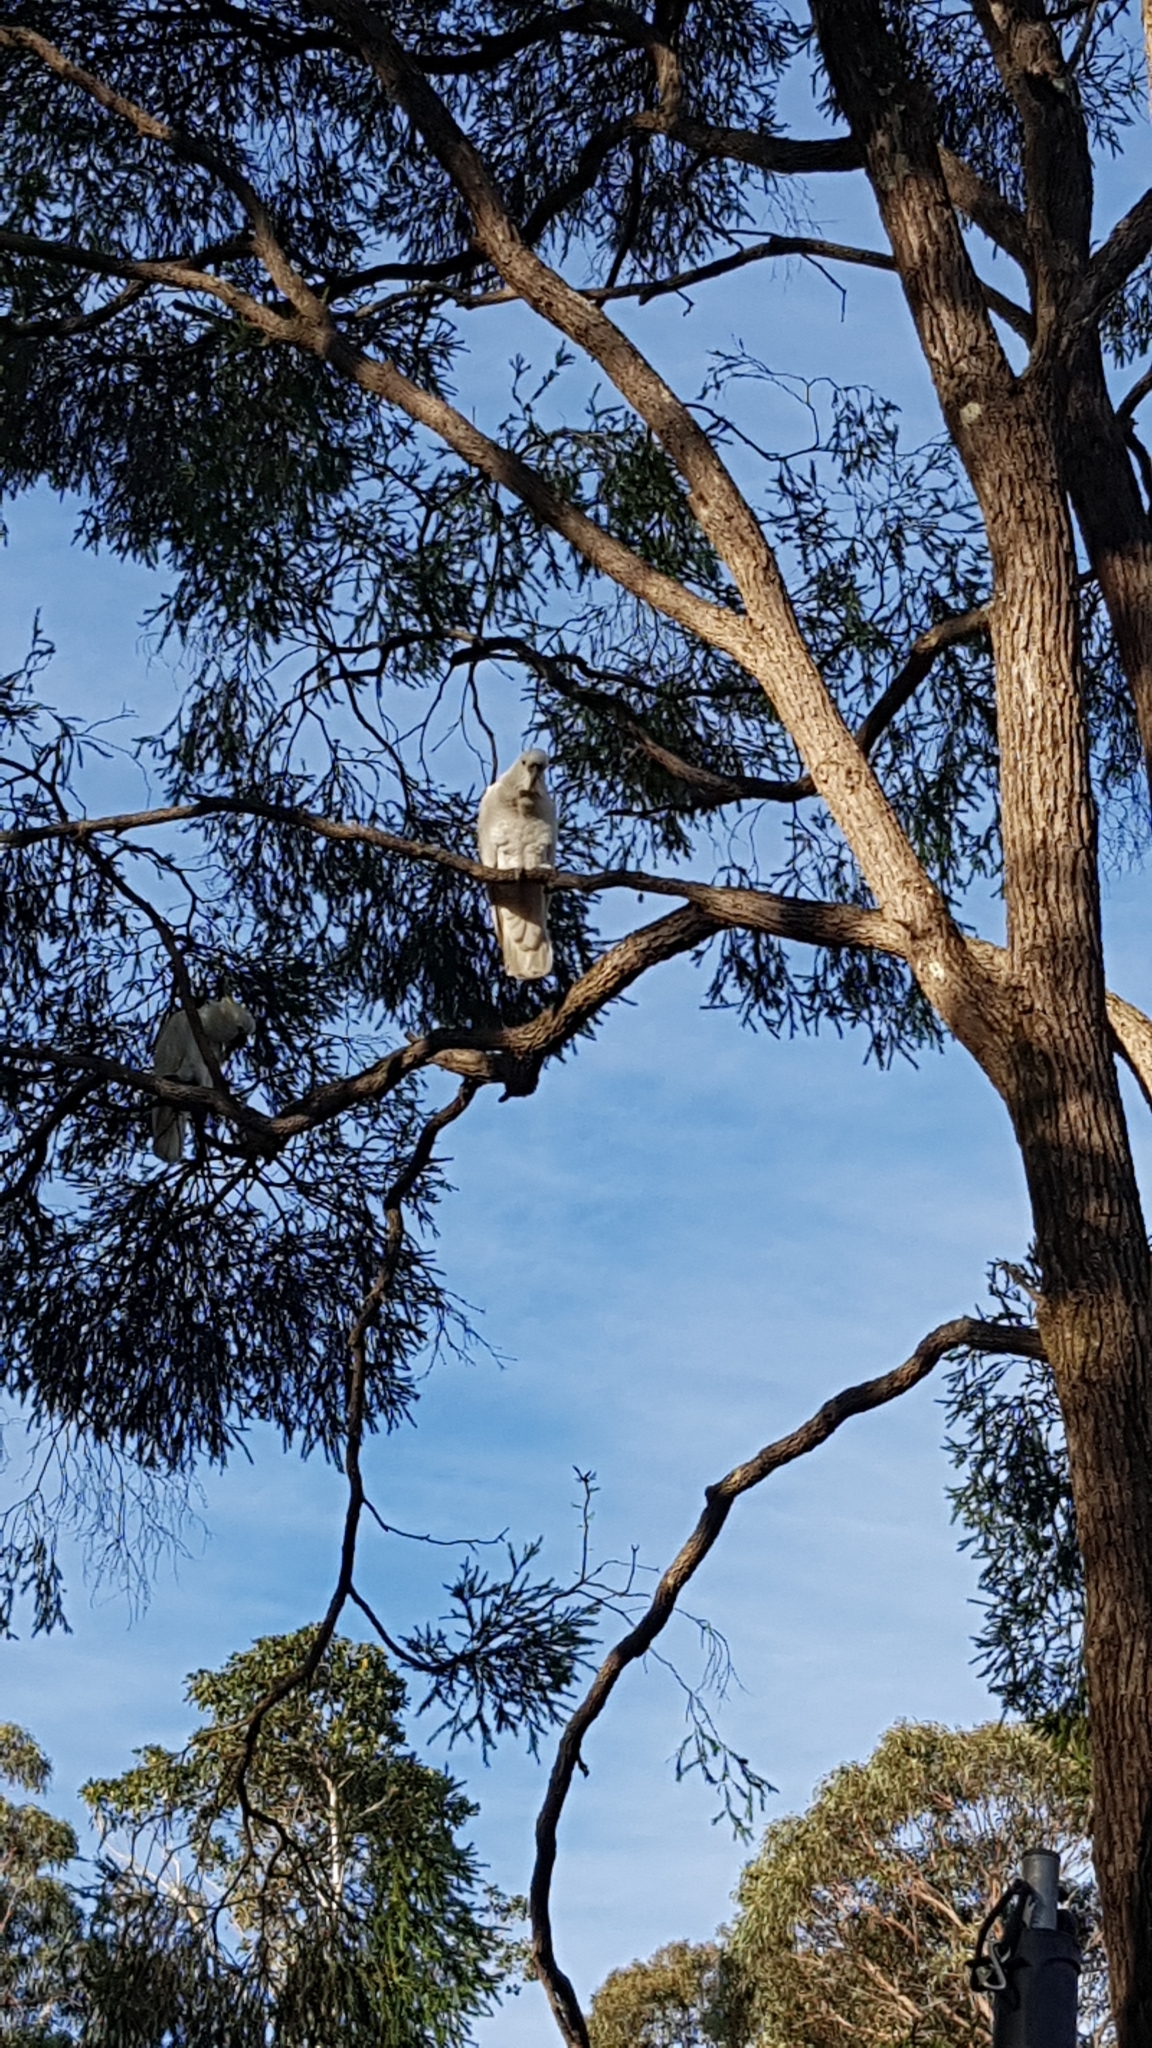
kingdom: Animalia
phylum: Chordata
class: Aves
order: Psittaciformes
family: Psittacidae
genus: Cacatua
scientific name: Cacatua galerita
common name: Sulphur-crested cockatoo
